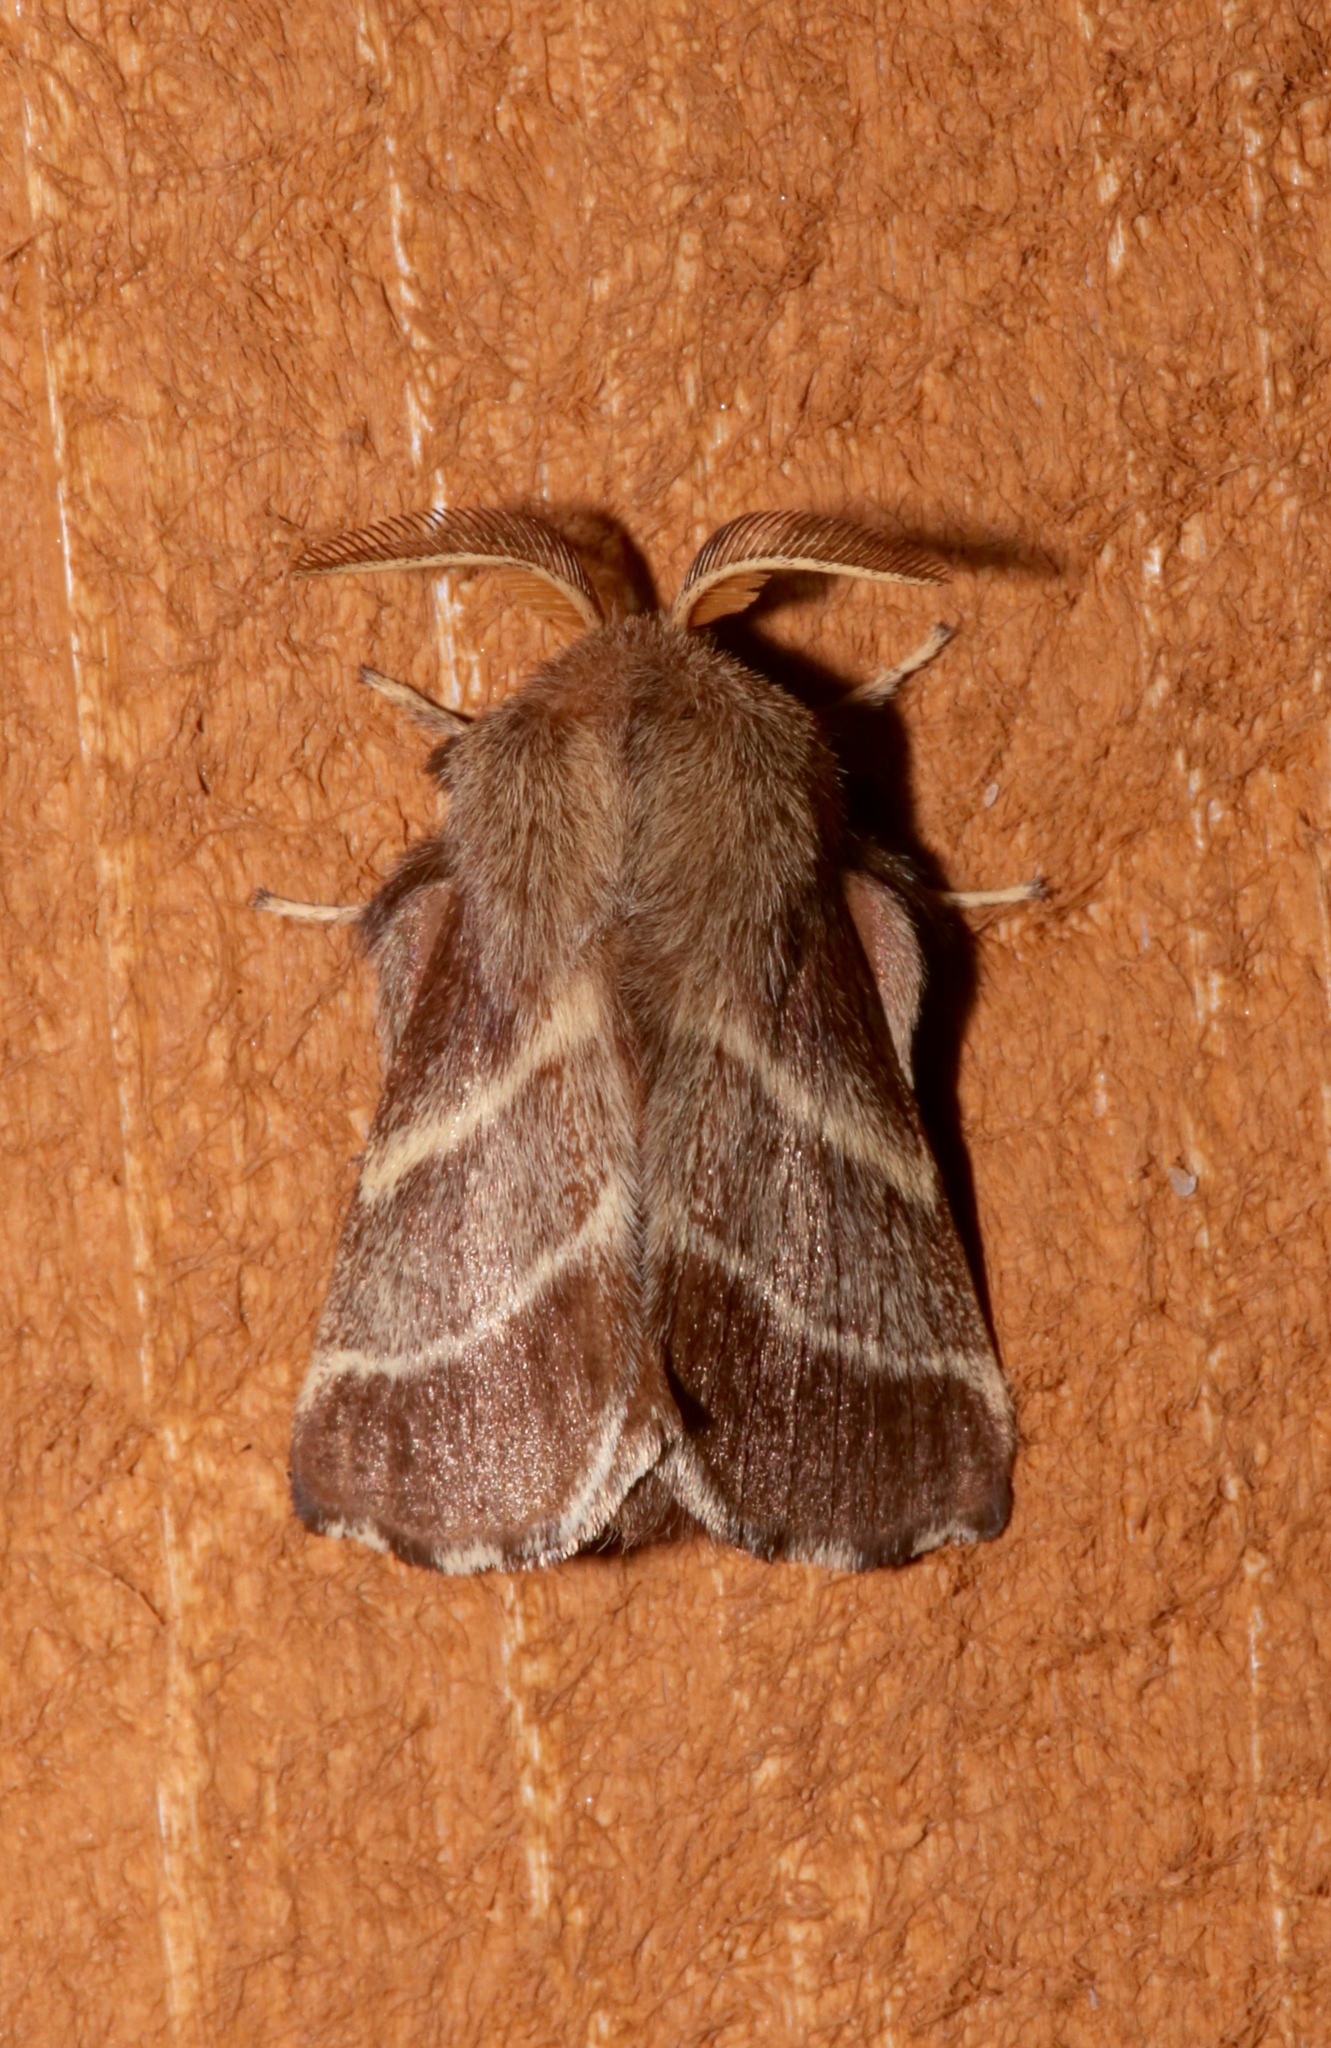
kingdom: Animalia
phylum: Arthropoda
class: Insecta
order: Lepidoptera
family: Lasiocampidae
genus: Malacosoma
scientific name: Malacosoma americana
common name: Eastern tent caterpillar moth
